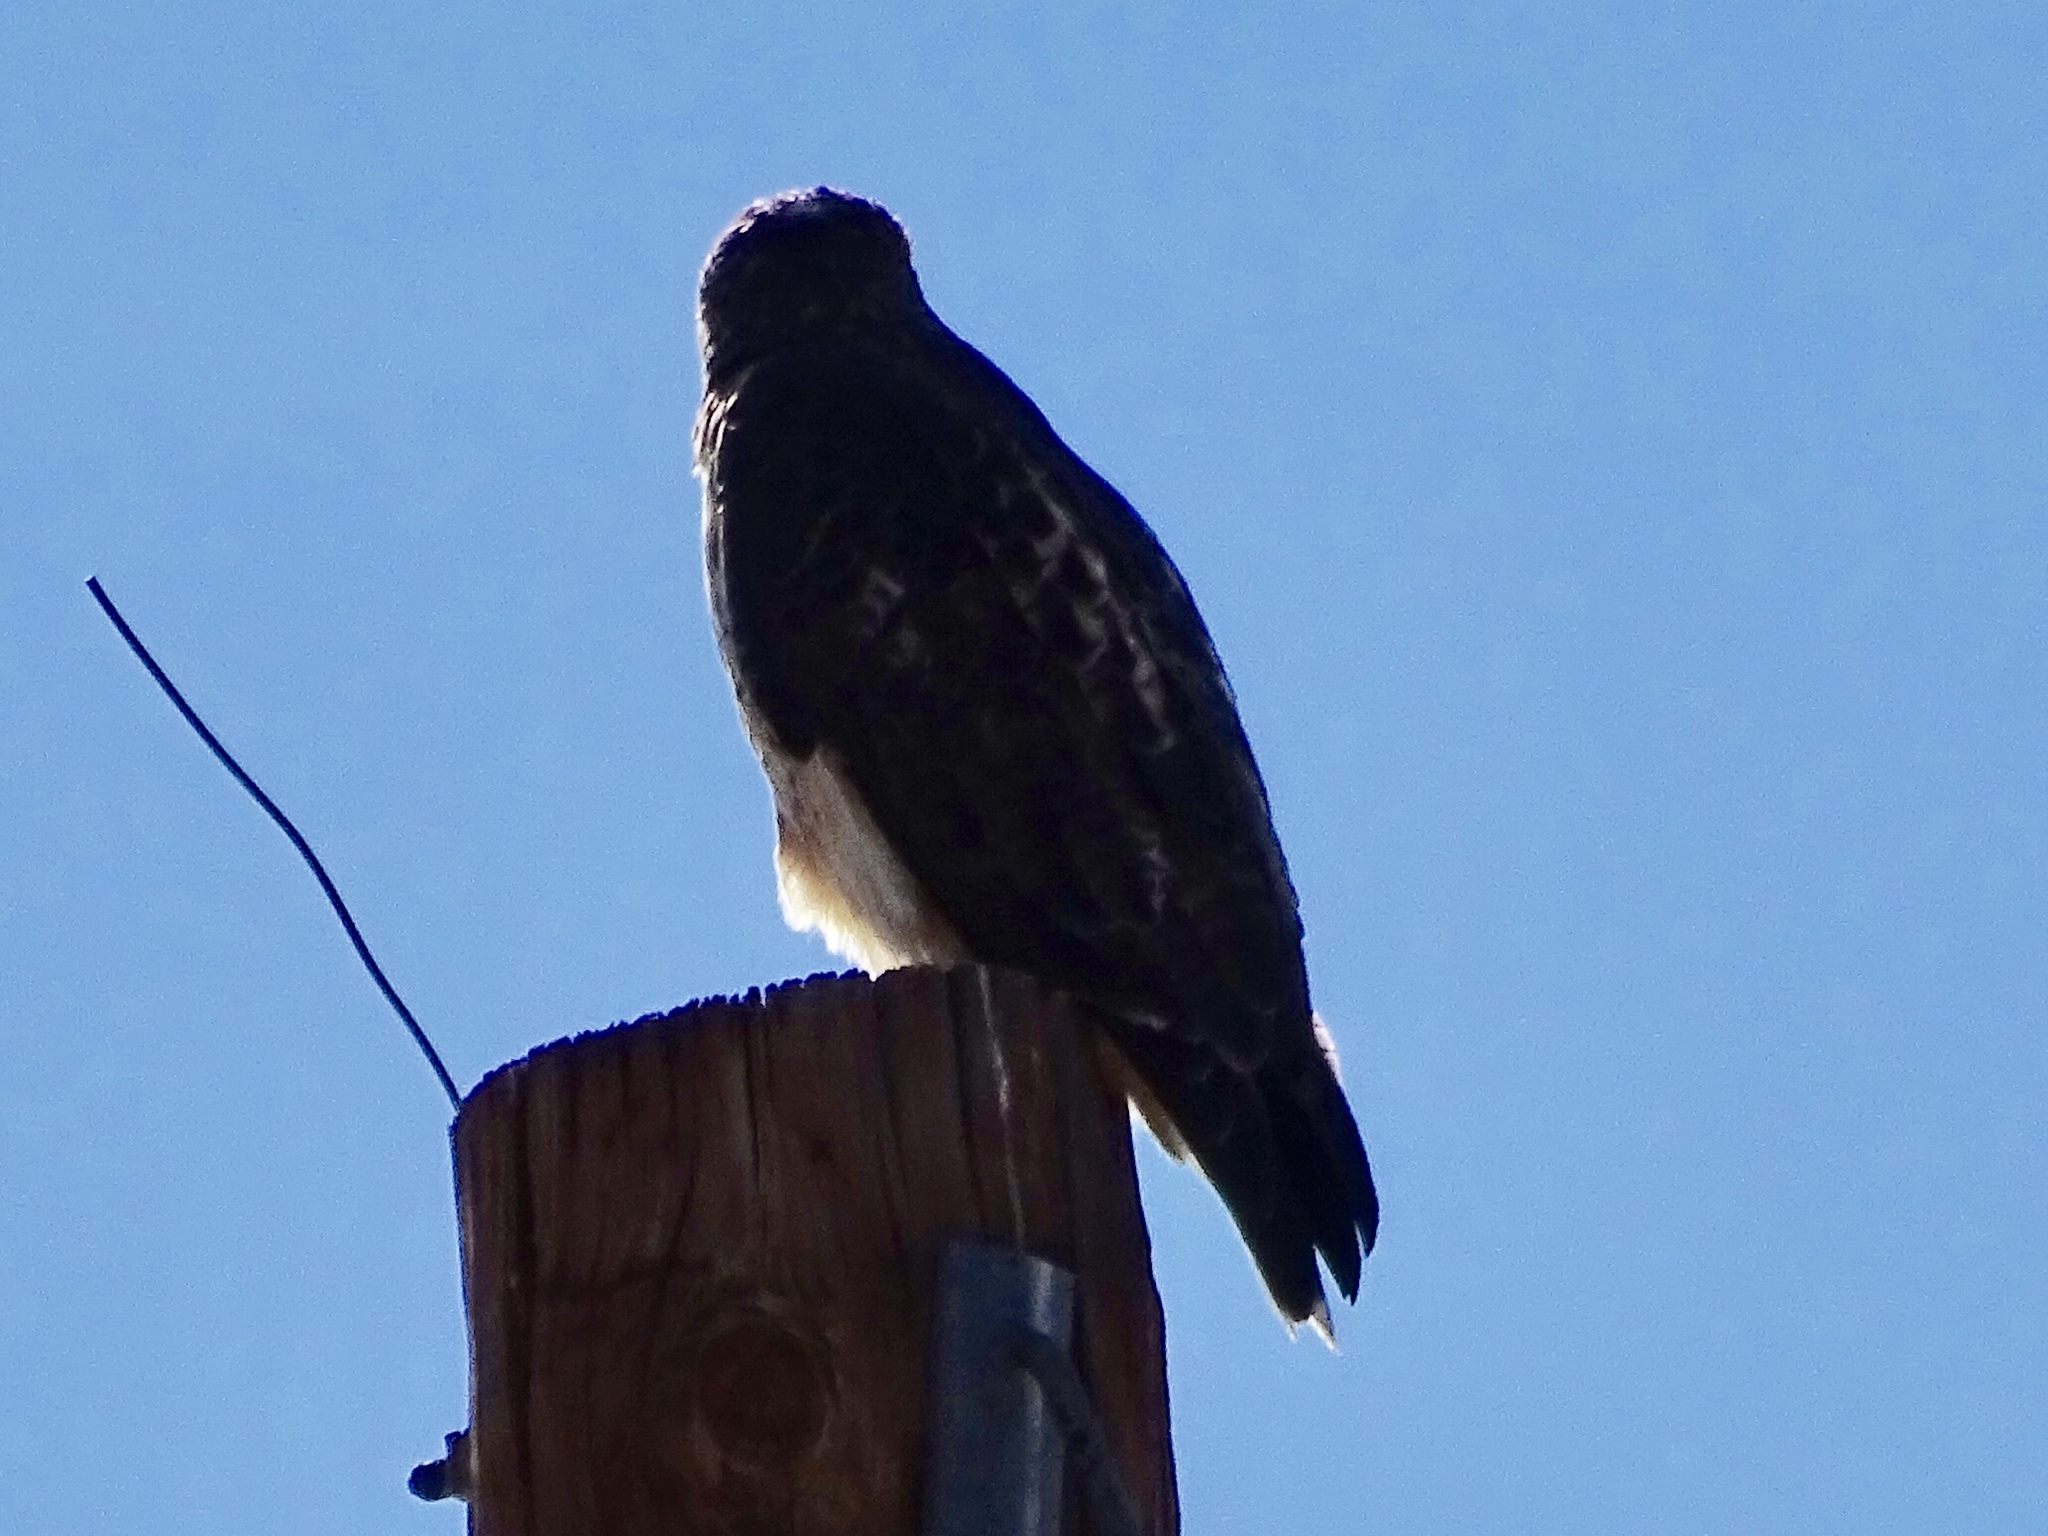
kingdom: Animalia
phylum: Chordata
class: Aves
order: Accipitriformes
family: Accipitridae
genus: Buteo
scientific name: Buteo jamaicensis
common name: Red-tailed hawk
